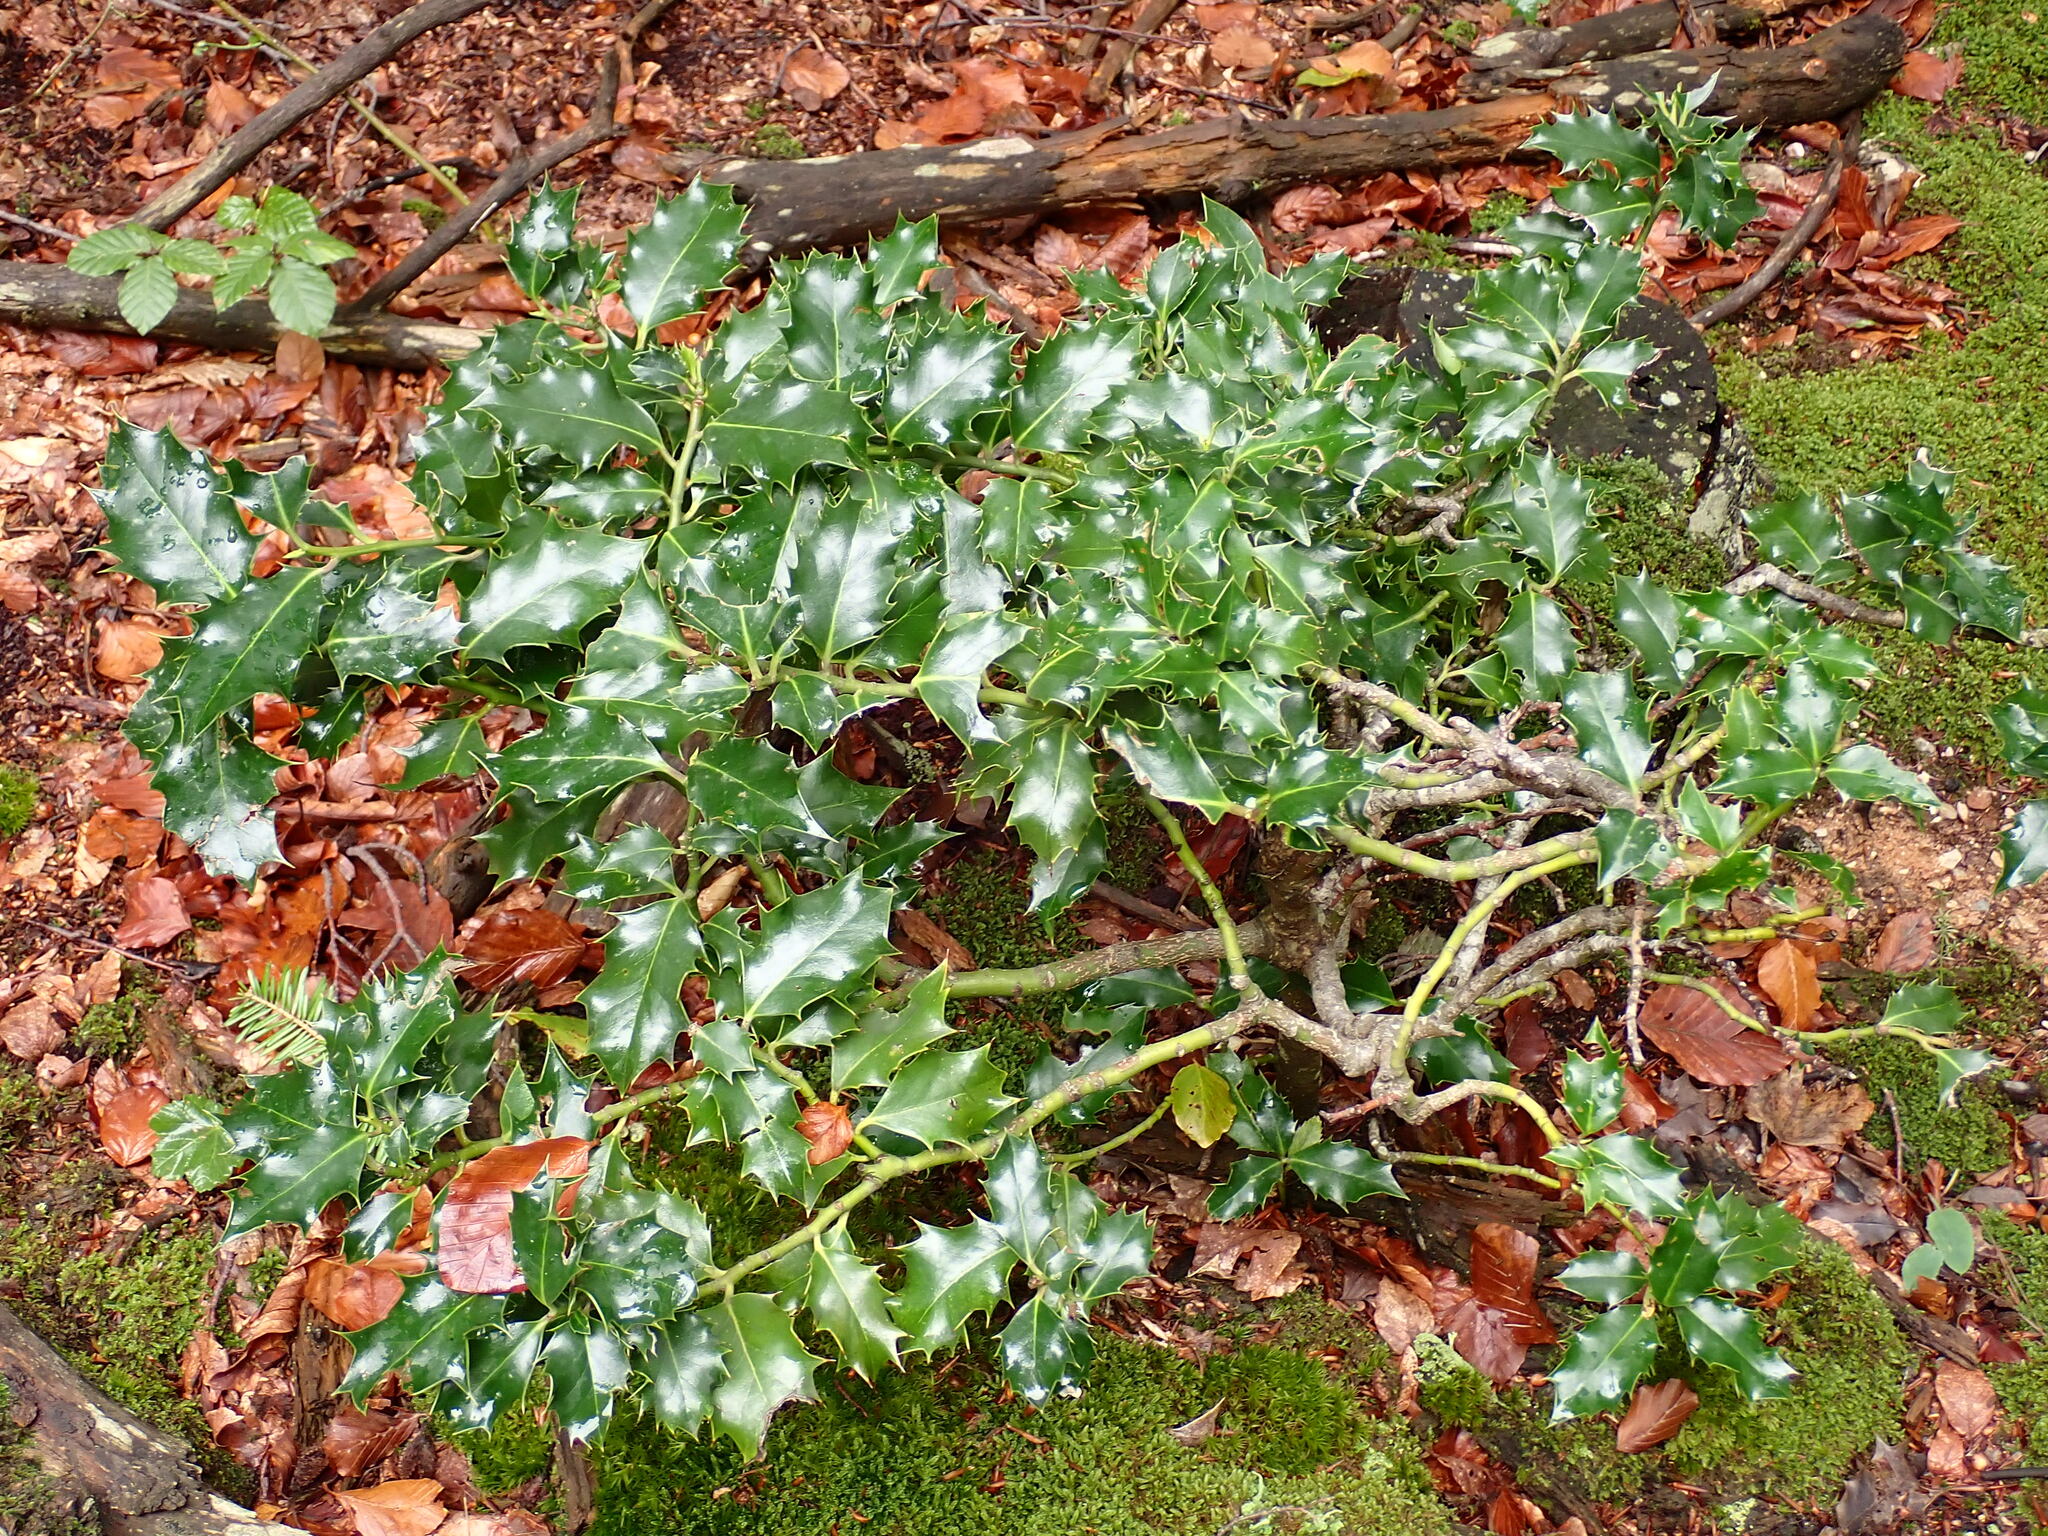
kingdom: Plantae
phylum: Tracheophyta
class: Magnoliopsida
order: Aquifoliales
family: Aquifoliaceae
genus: Ilex
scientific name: Ilex aquifolium
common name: English holly
